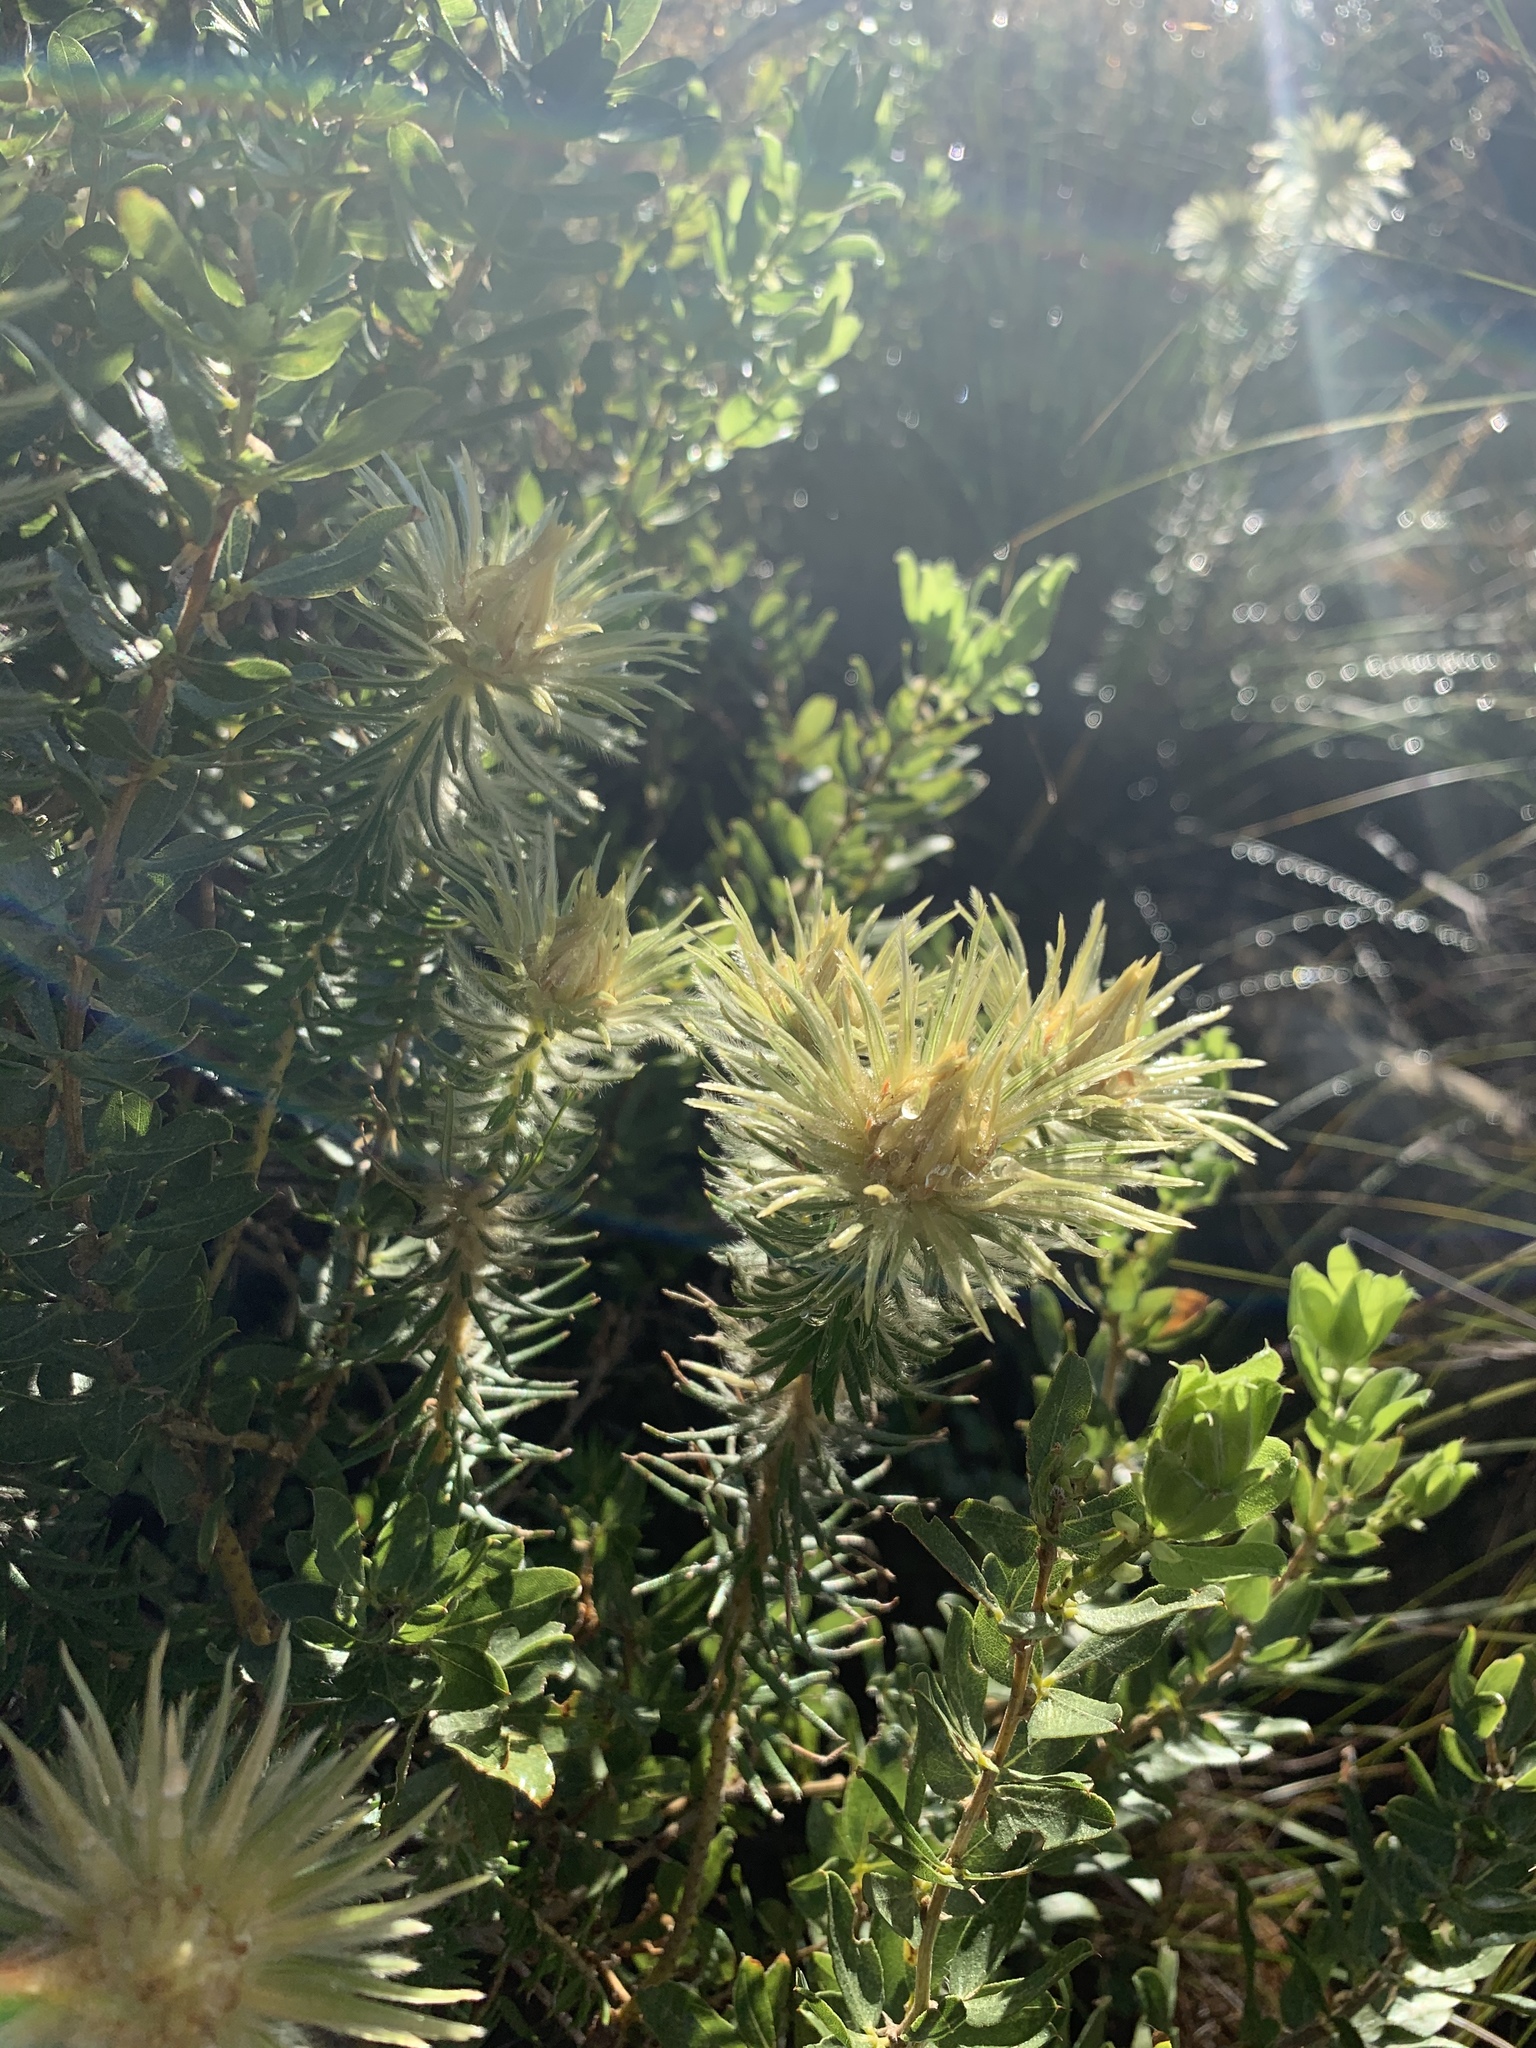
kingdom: Plantae
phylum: Tracheophyta
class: Magnoliopsida
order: Rosales
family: Rhamnaceae
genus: Phylica
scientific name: Phylica pubescens
